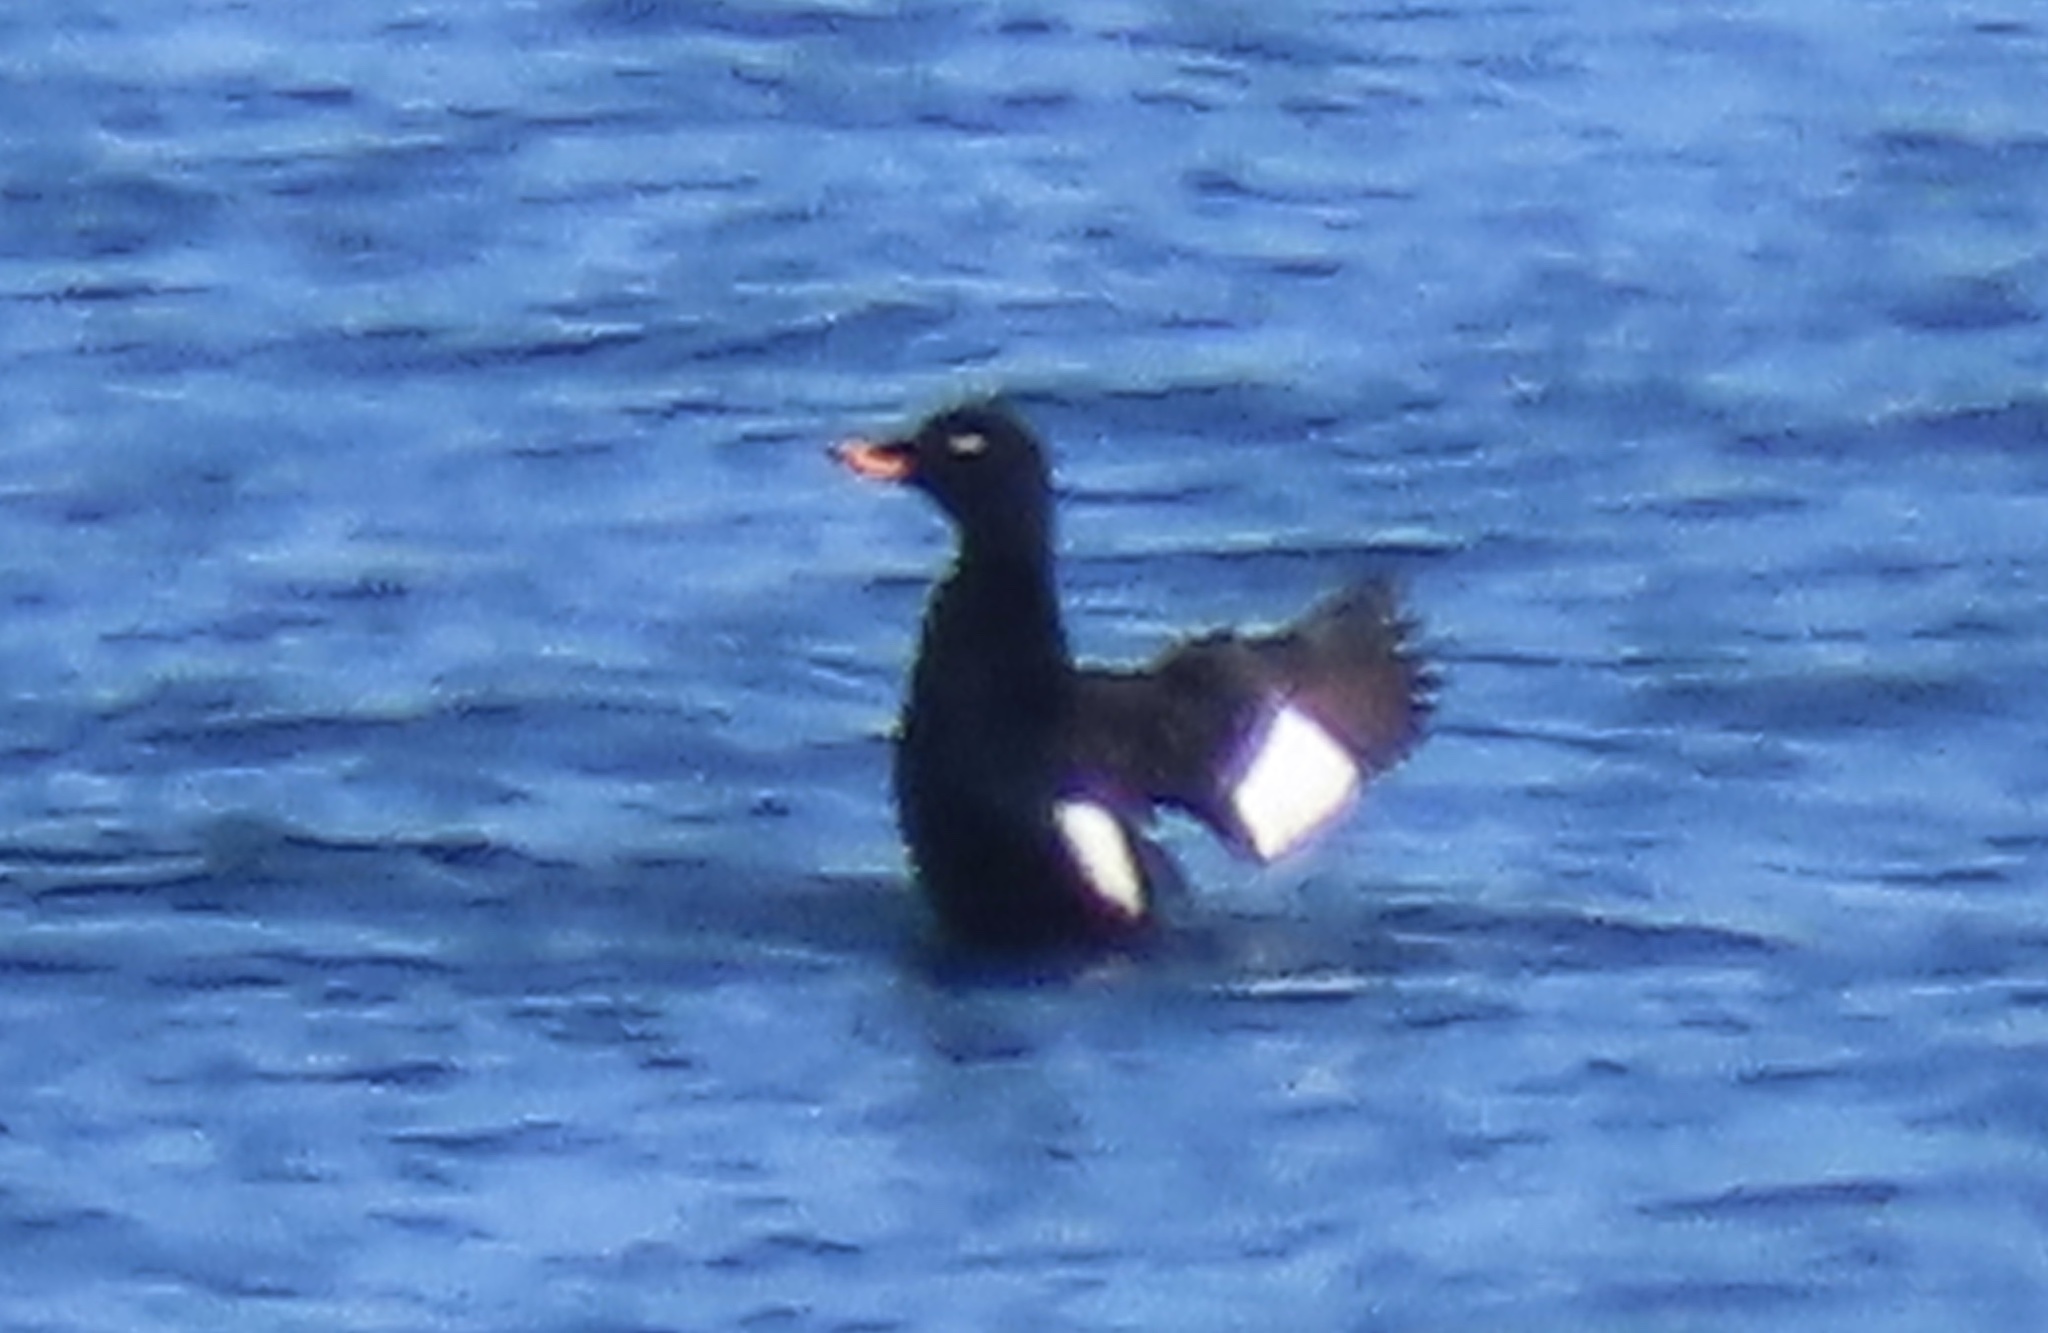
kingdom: Animalia
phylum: Chordata
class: Aves
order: Anseriformes
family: Anatidae
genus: Melanitta
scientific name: Melanitta fusca
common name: Velvet scoter
